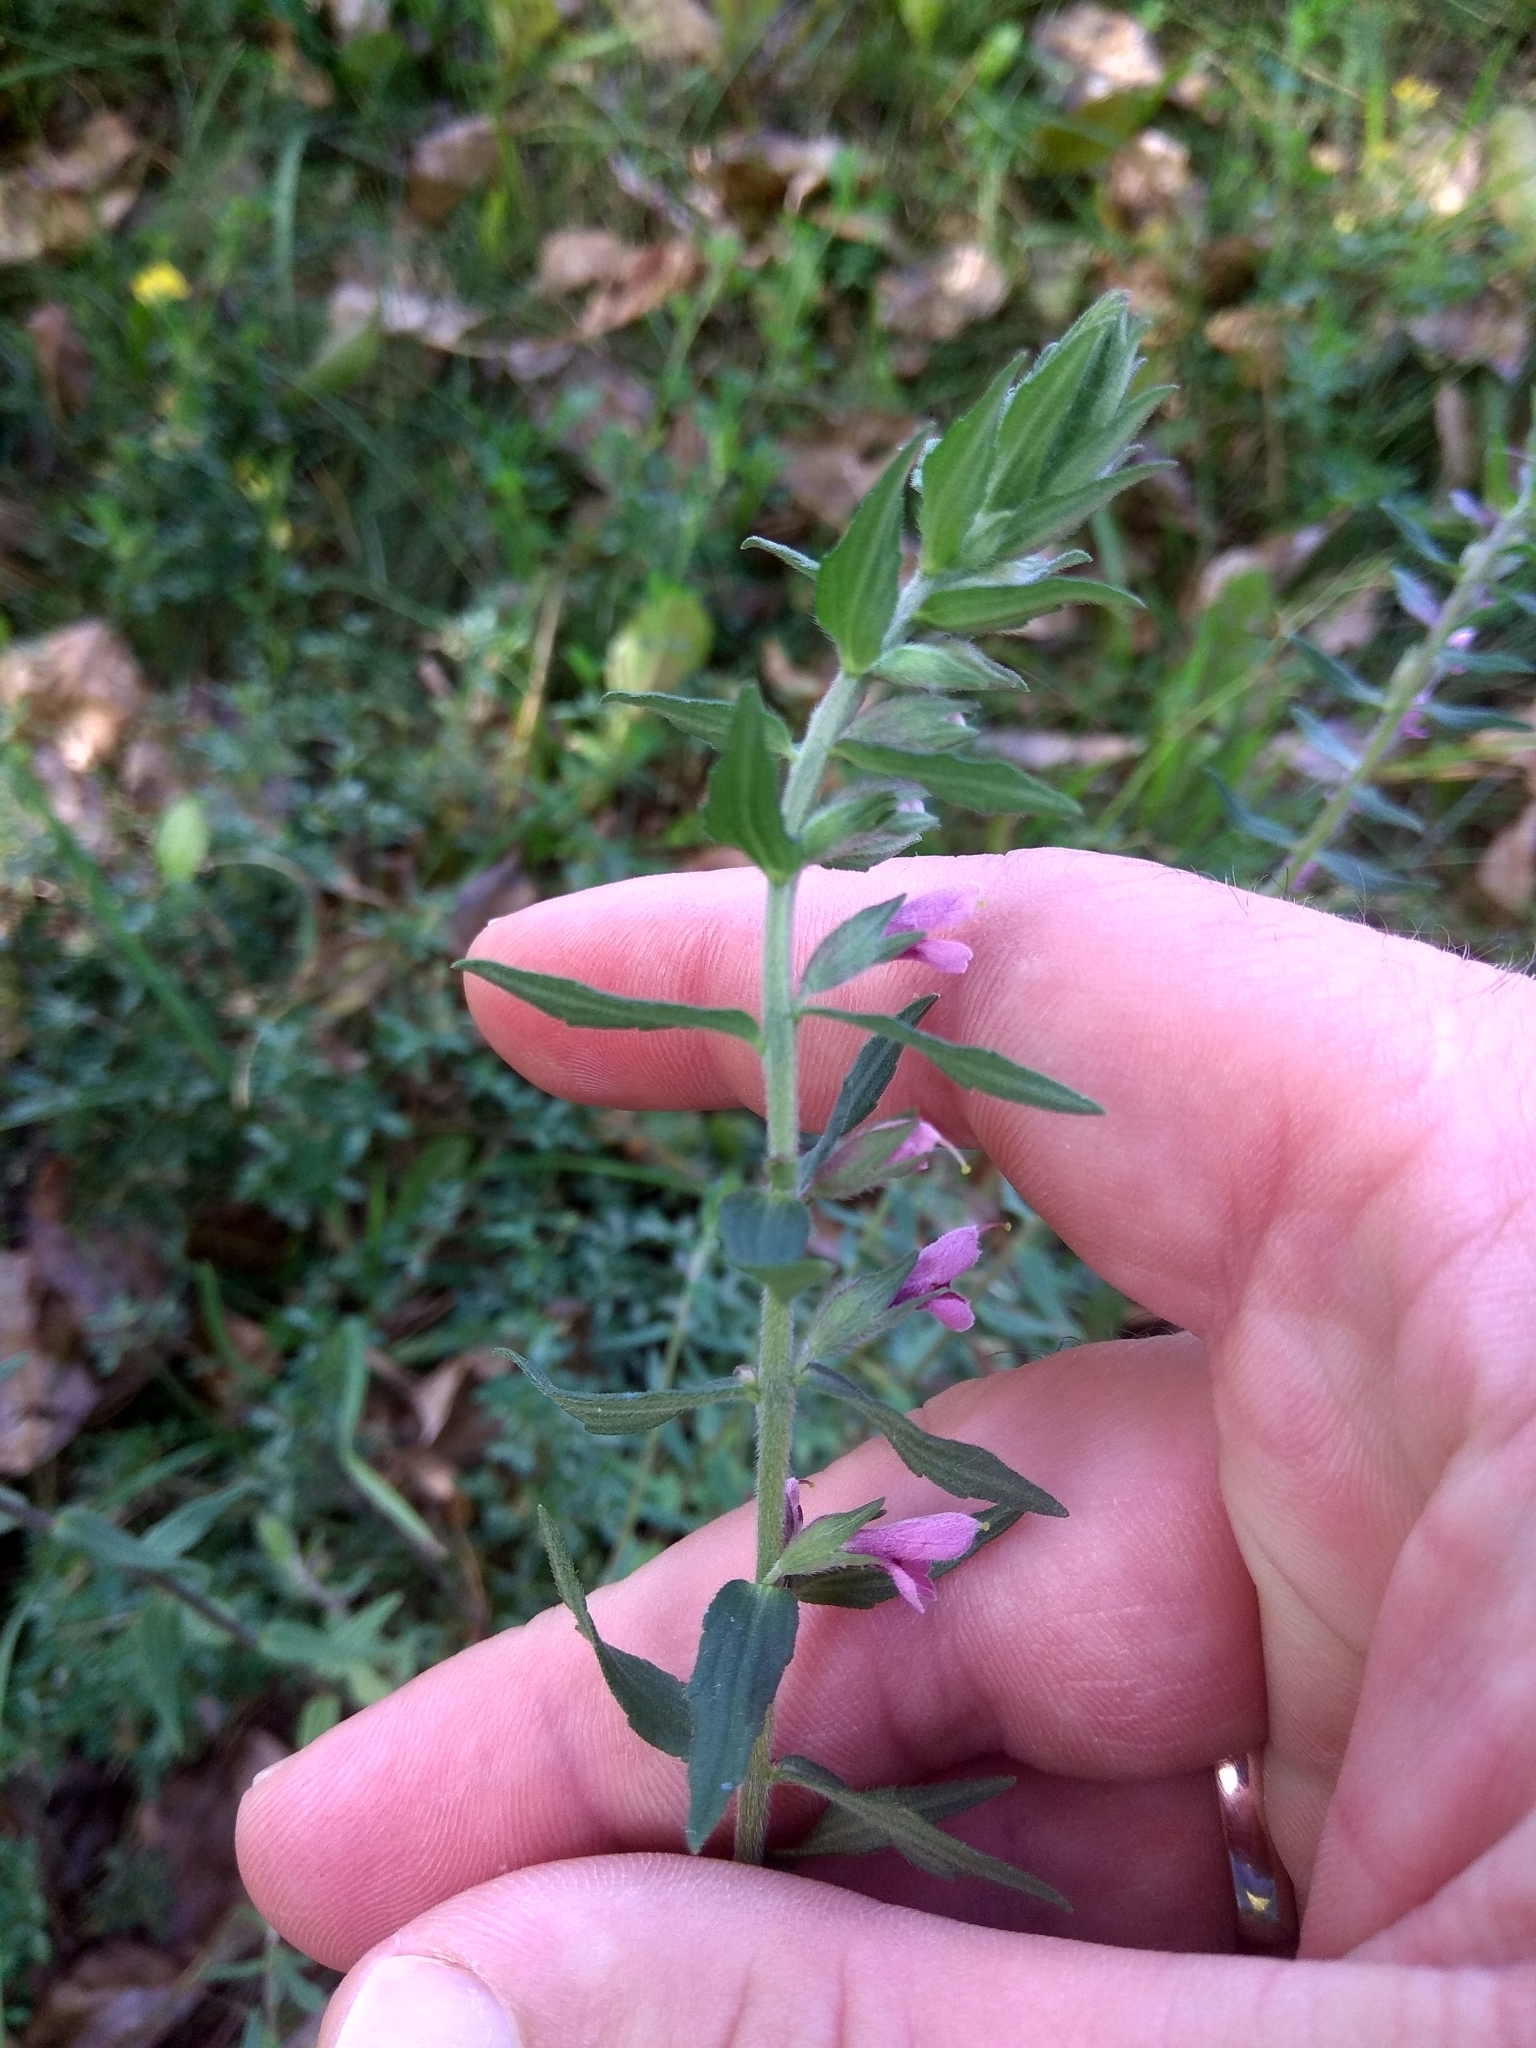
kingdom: Plantae
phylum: Tracheophyta
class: Magnoliopsida
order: Lamiales
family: Orobanchaceae
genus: Odontites
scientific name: Odontites vulgaris
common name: Broomrape
